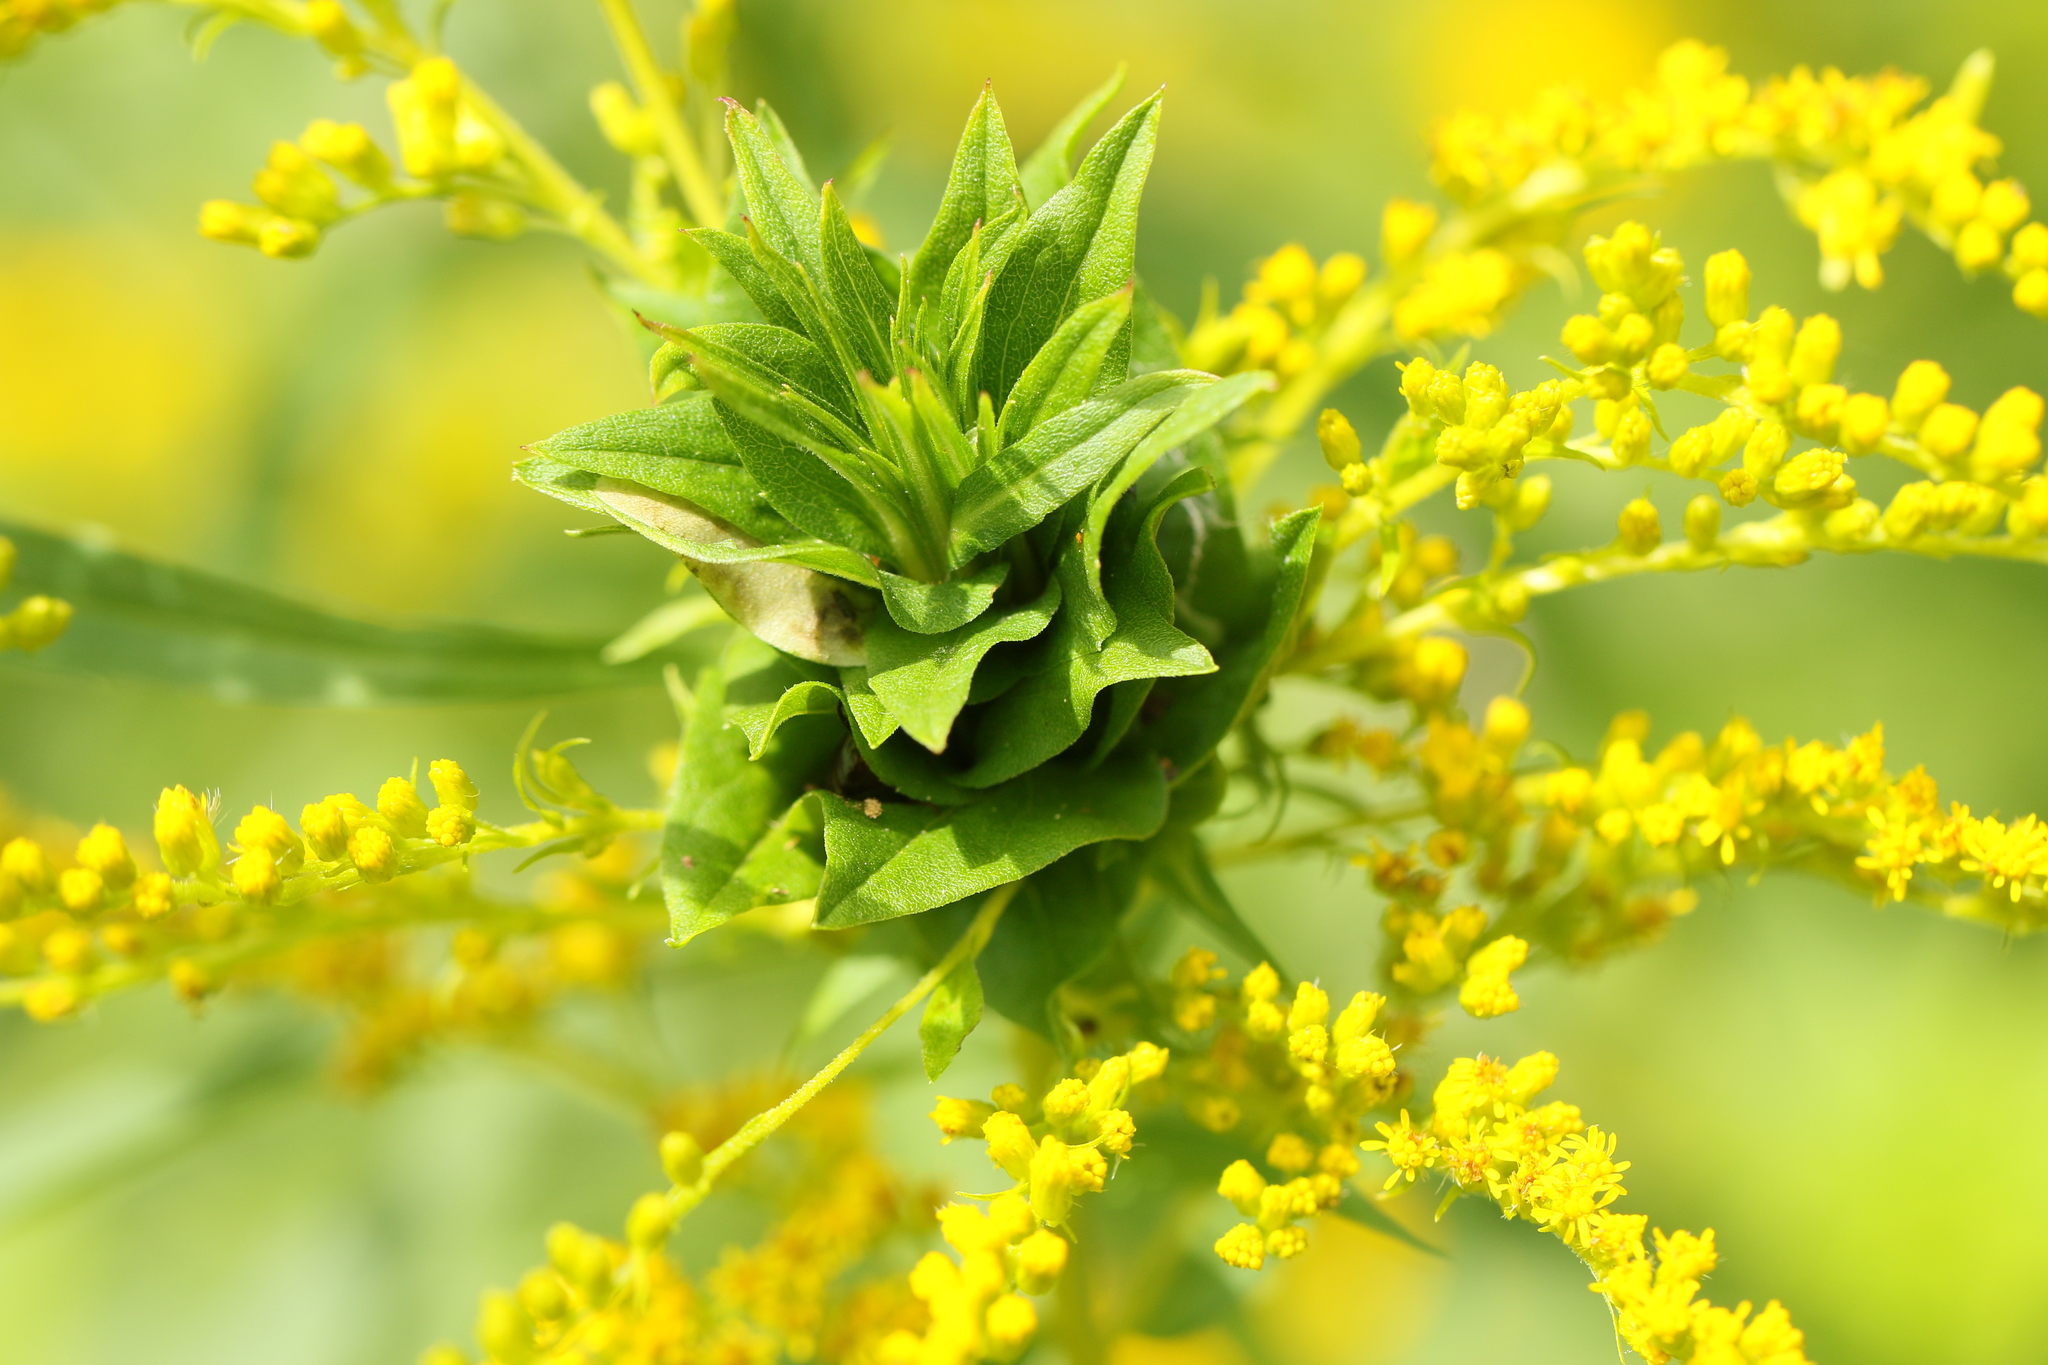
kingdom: Animalia
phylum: Arthropoda
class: Insecta
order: Diptera
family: Cecidomyiidae
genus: Rhopalomyia
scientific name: Rhopalomyia solidaginis
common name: Goldenrod bunch gall midge
